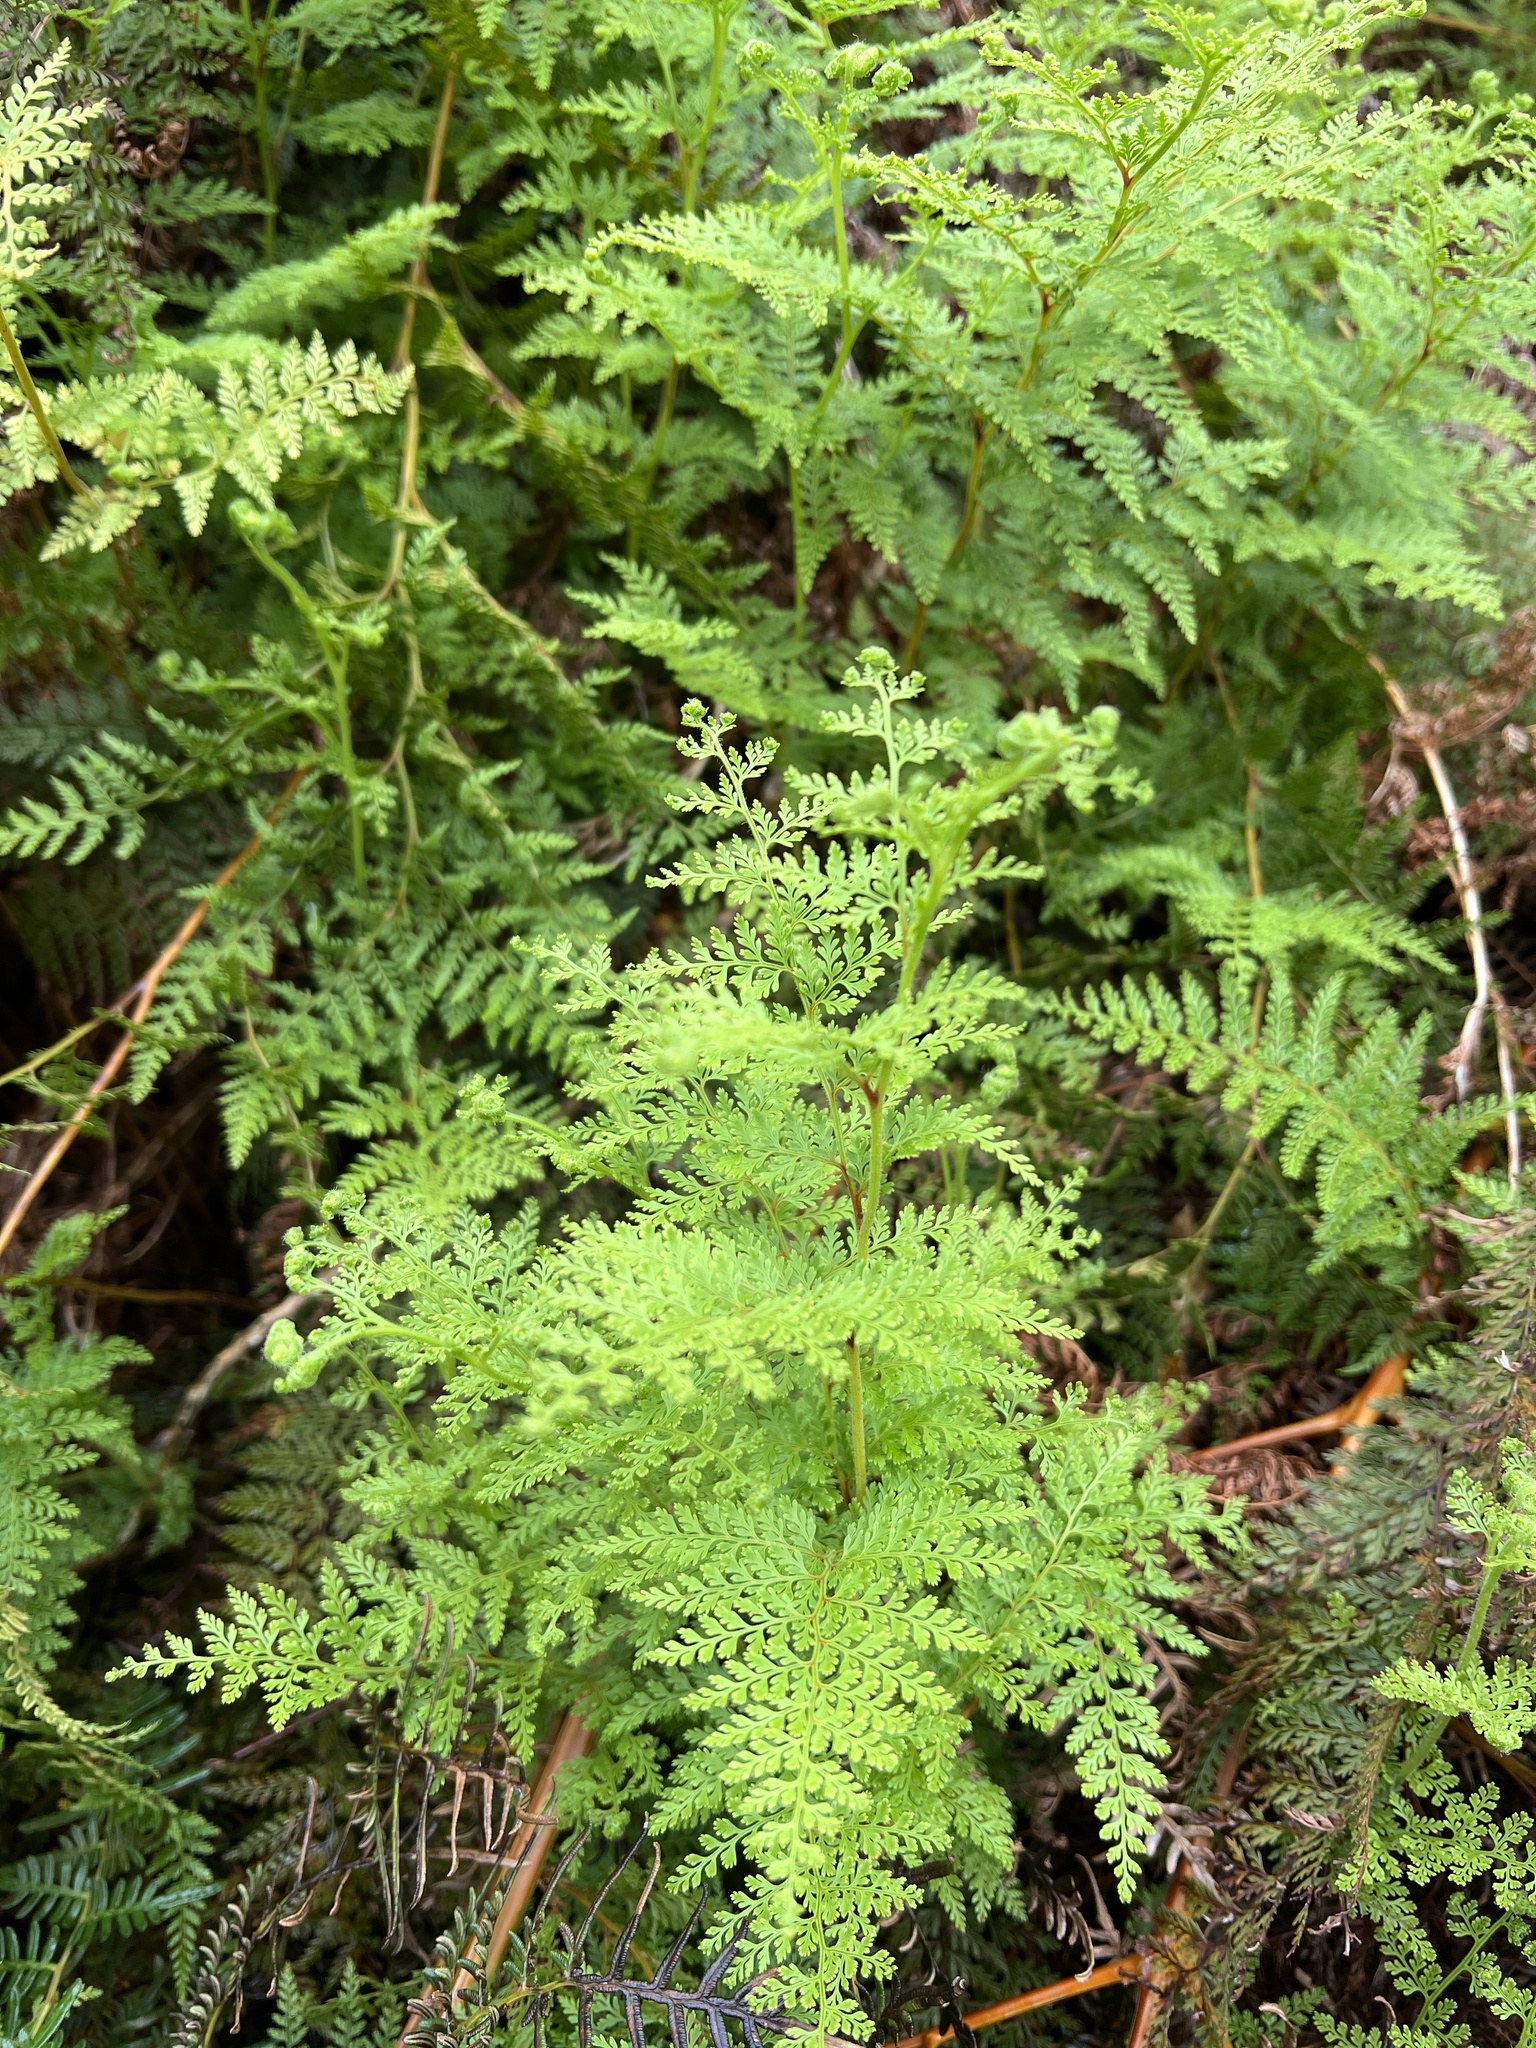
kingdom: Plantae
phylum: Tracheophyta
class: Polypodiopsida
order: Polypodiales
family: Dennstaedtiaceae
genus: Paesia
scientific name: Paesia scaberula
